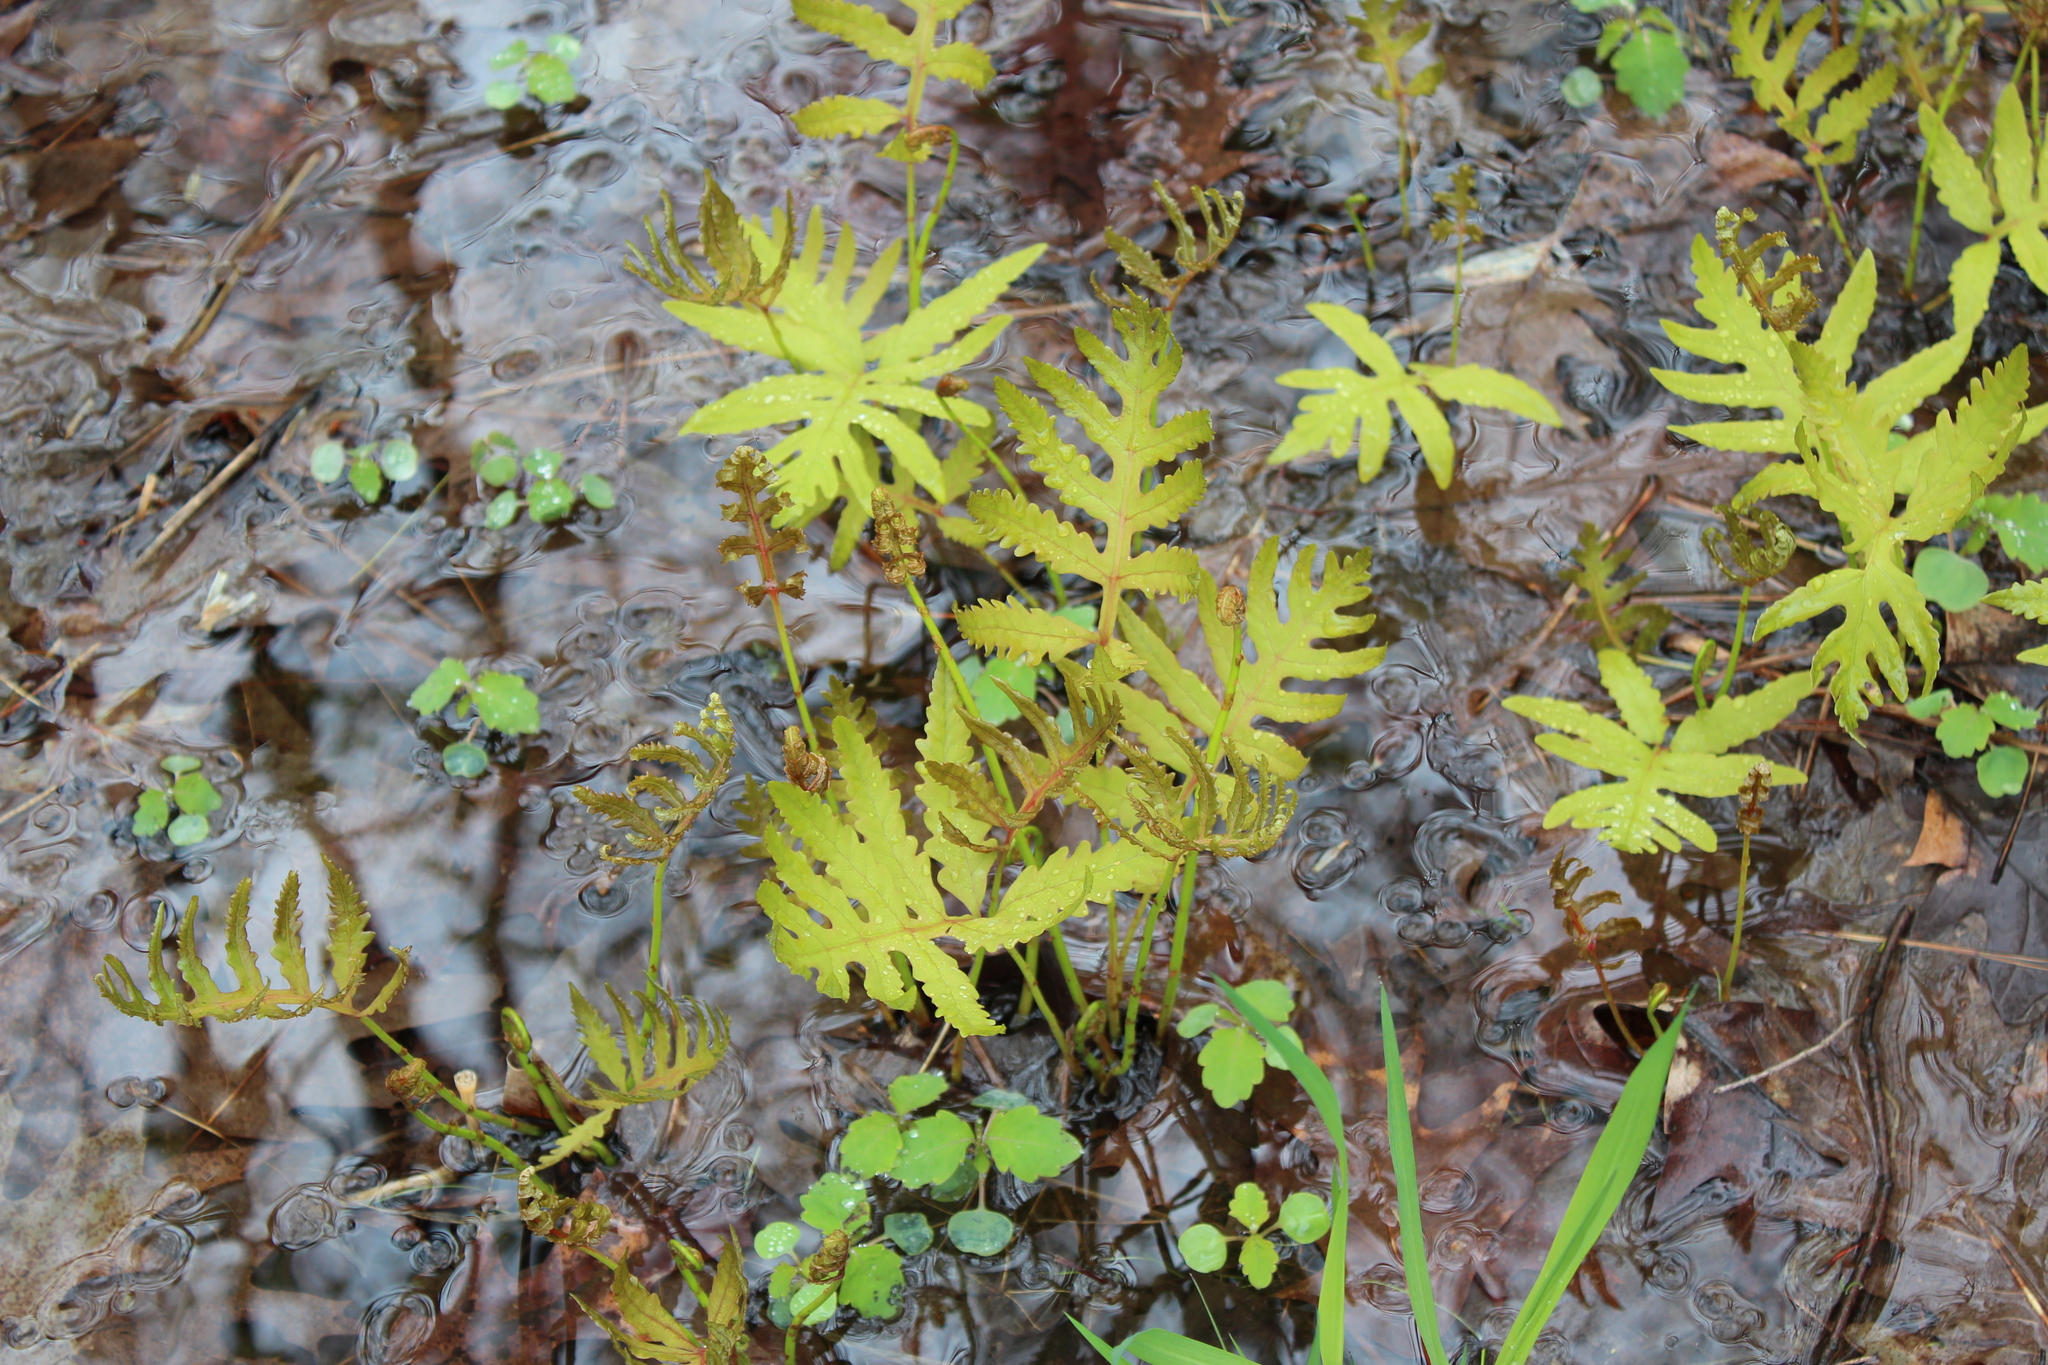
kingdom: Plantae
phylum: Tracheophyta
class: Polypodiopsida
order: Polypodiales
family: Onocleaceae
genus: Onoclea
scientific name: Onoclea sensibilis
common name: Sensitive fern
